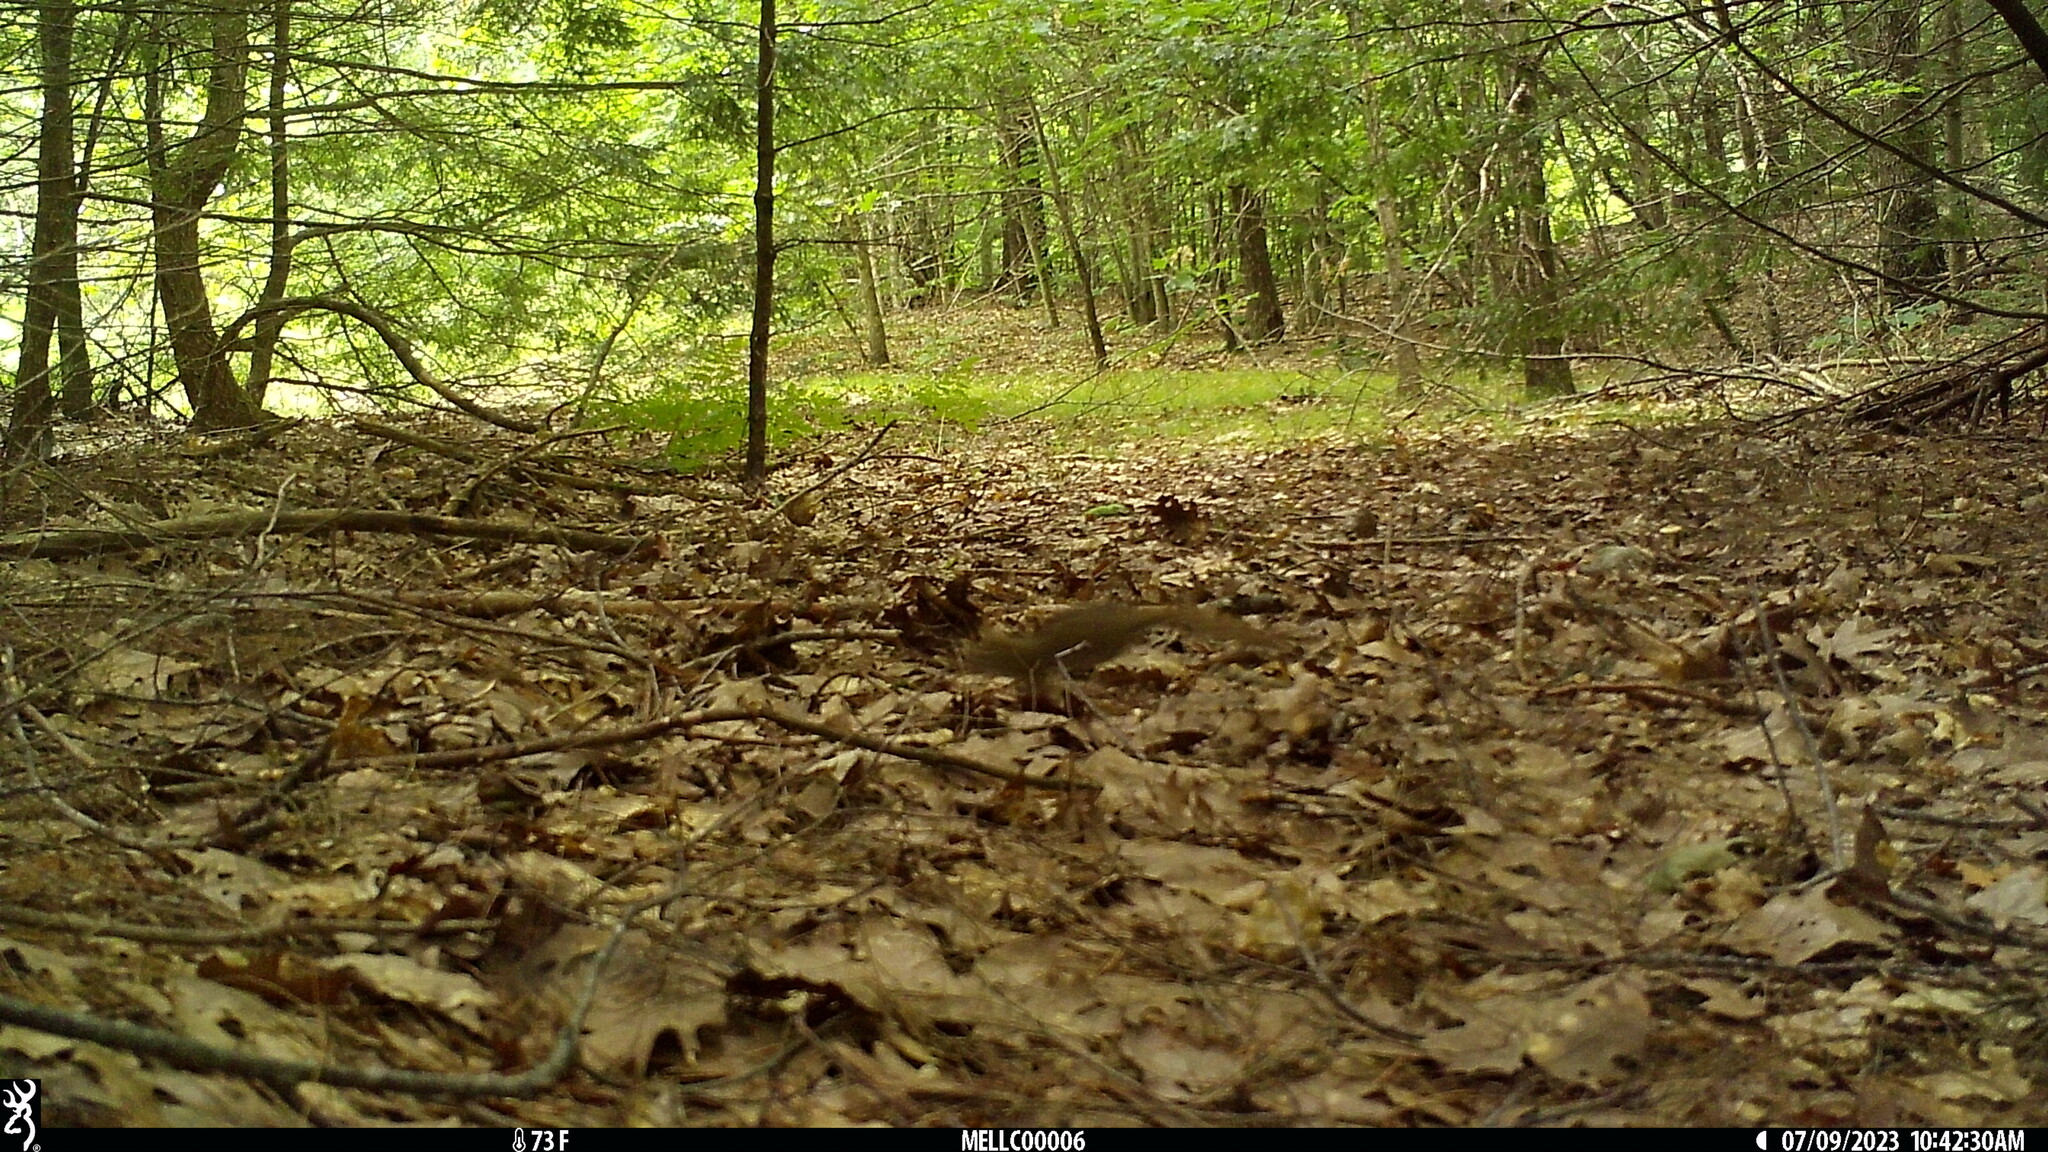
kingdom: Animalia
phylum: Chordata
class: Mammalia
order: Rodentia
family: Sciuridae
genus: Tamiasciurus
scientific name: Tamiasciurus hudsonicus
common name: Red squirrel
